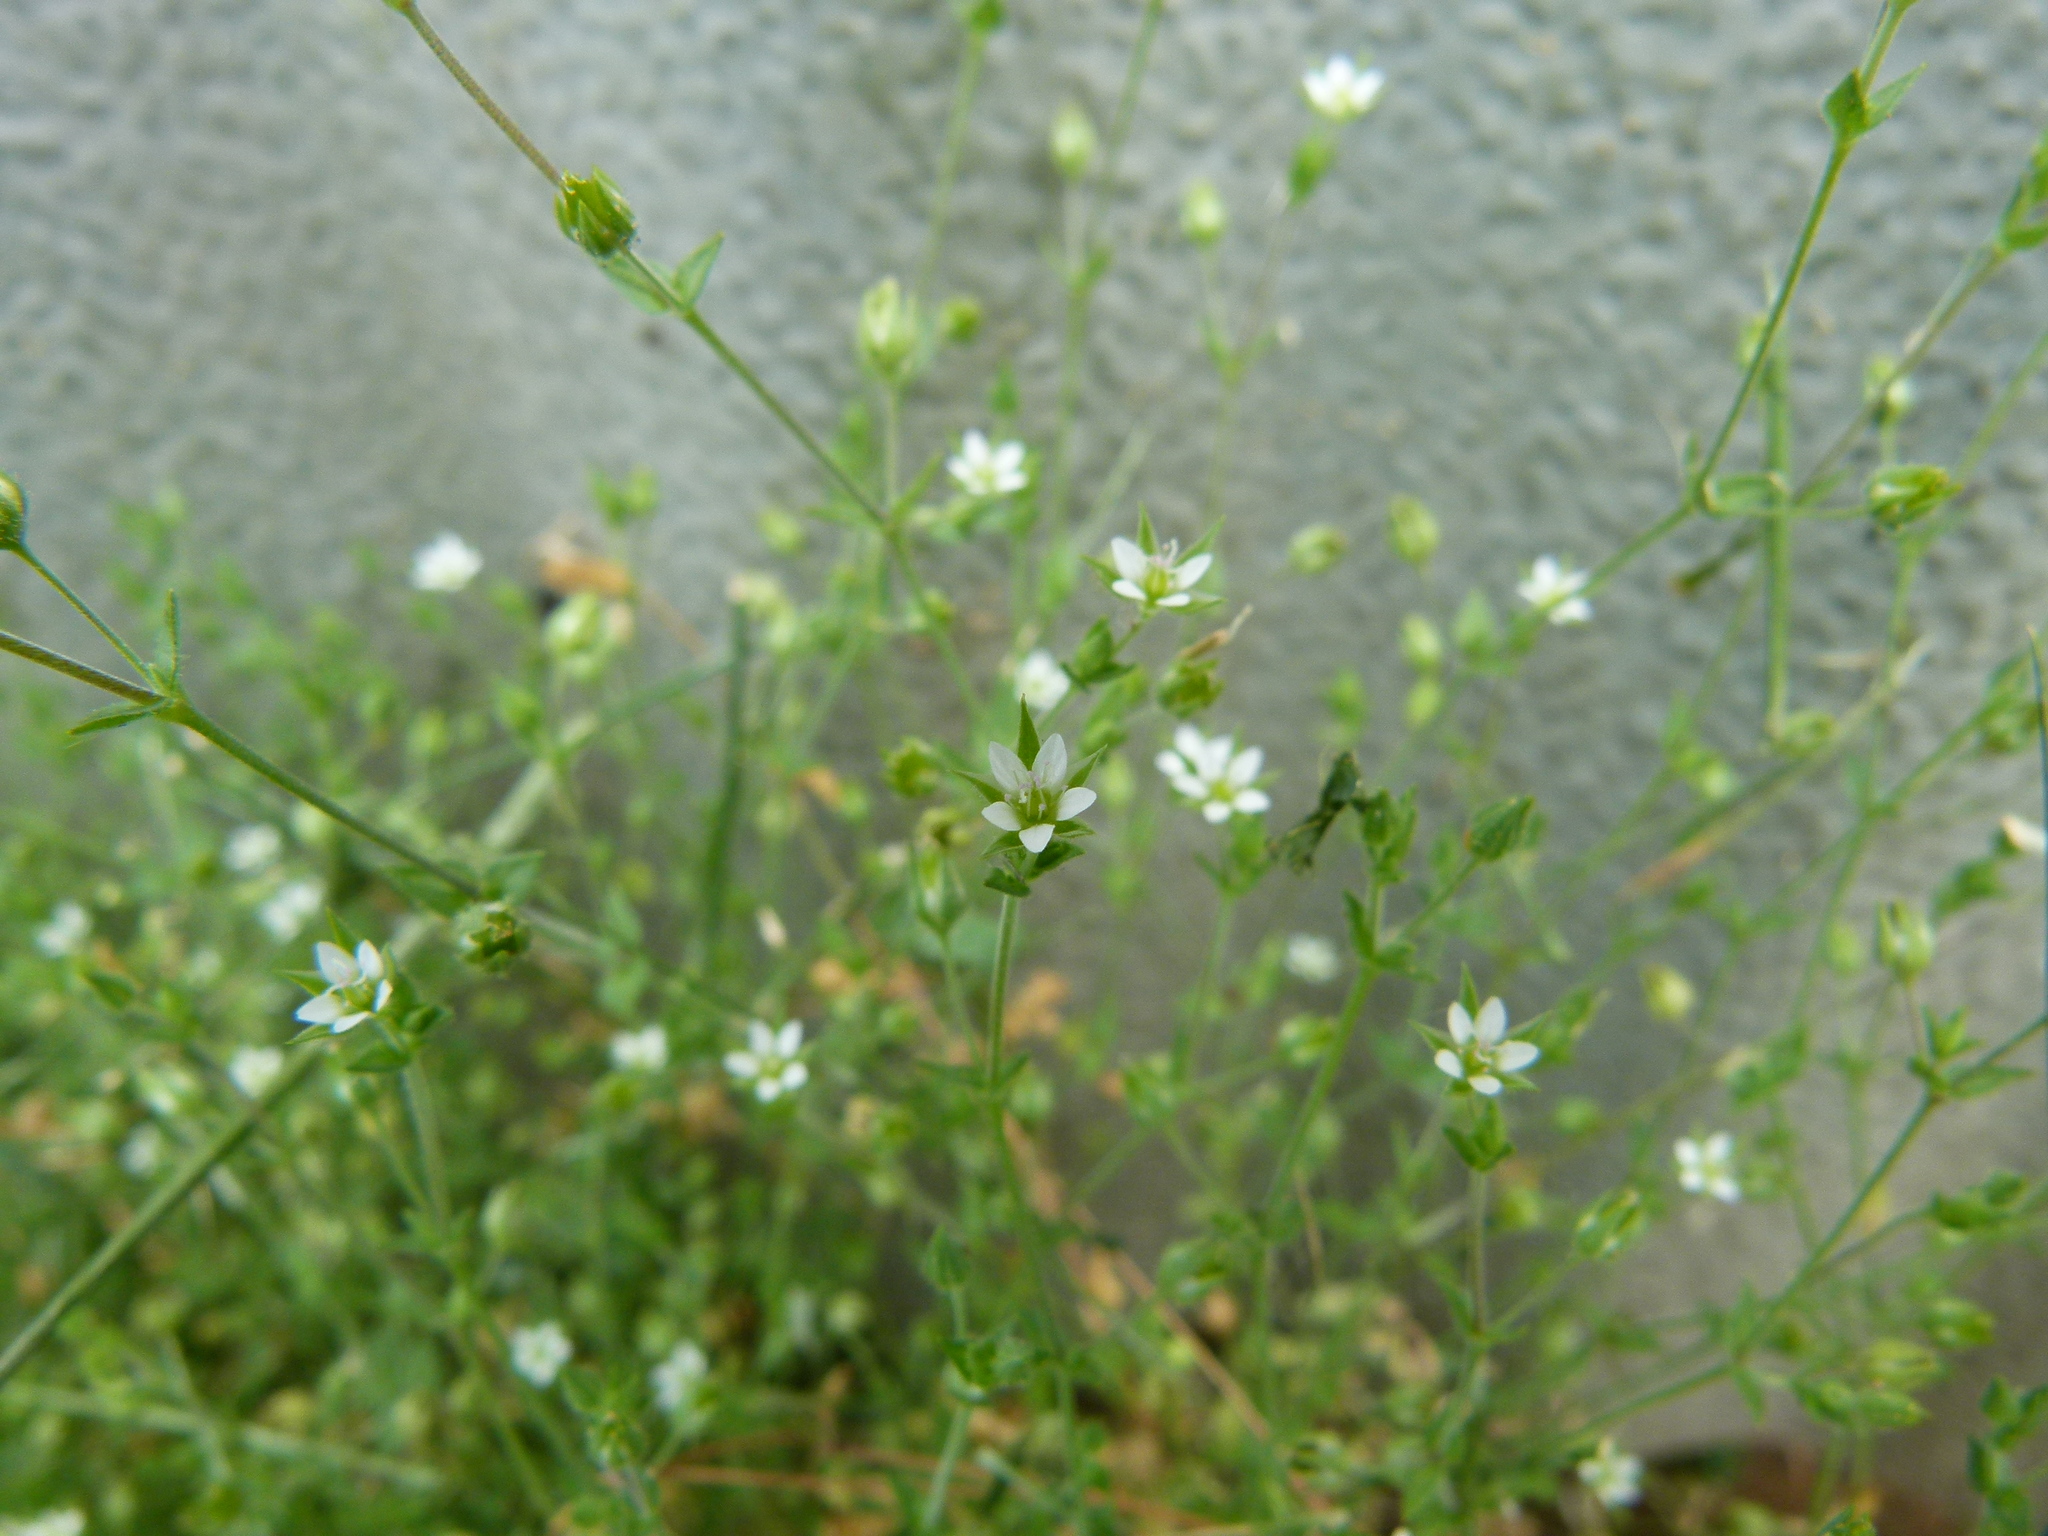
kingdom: Plantae
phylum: Tracheophyta
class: Magnoliopsida
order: Caryophyllales
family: Caryophyllaceae
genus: Arenaria
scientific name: Arenaria serpyllifolia
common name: Thyme-leaved sandwort
